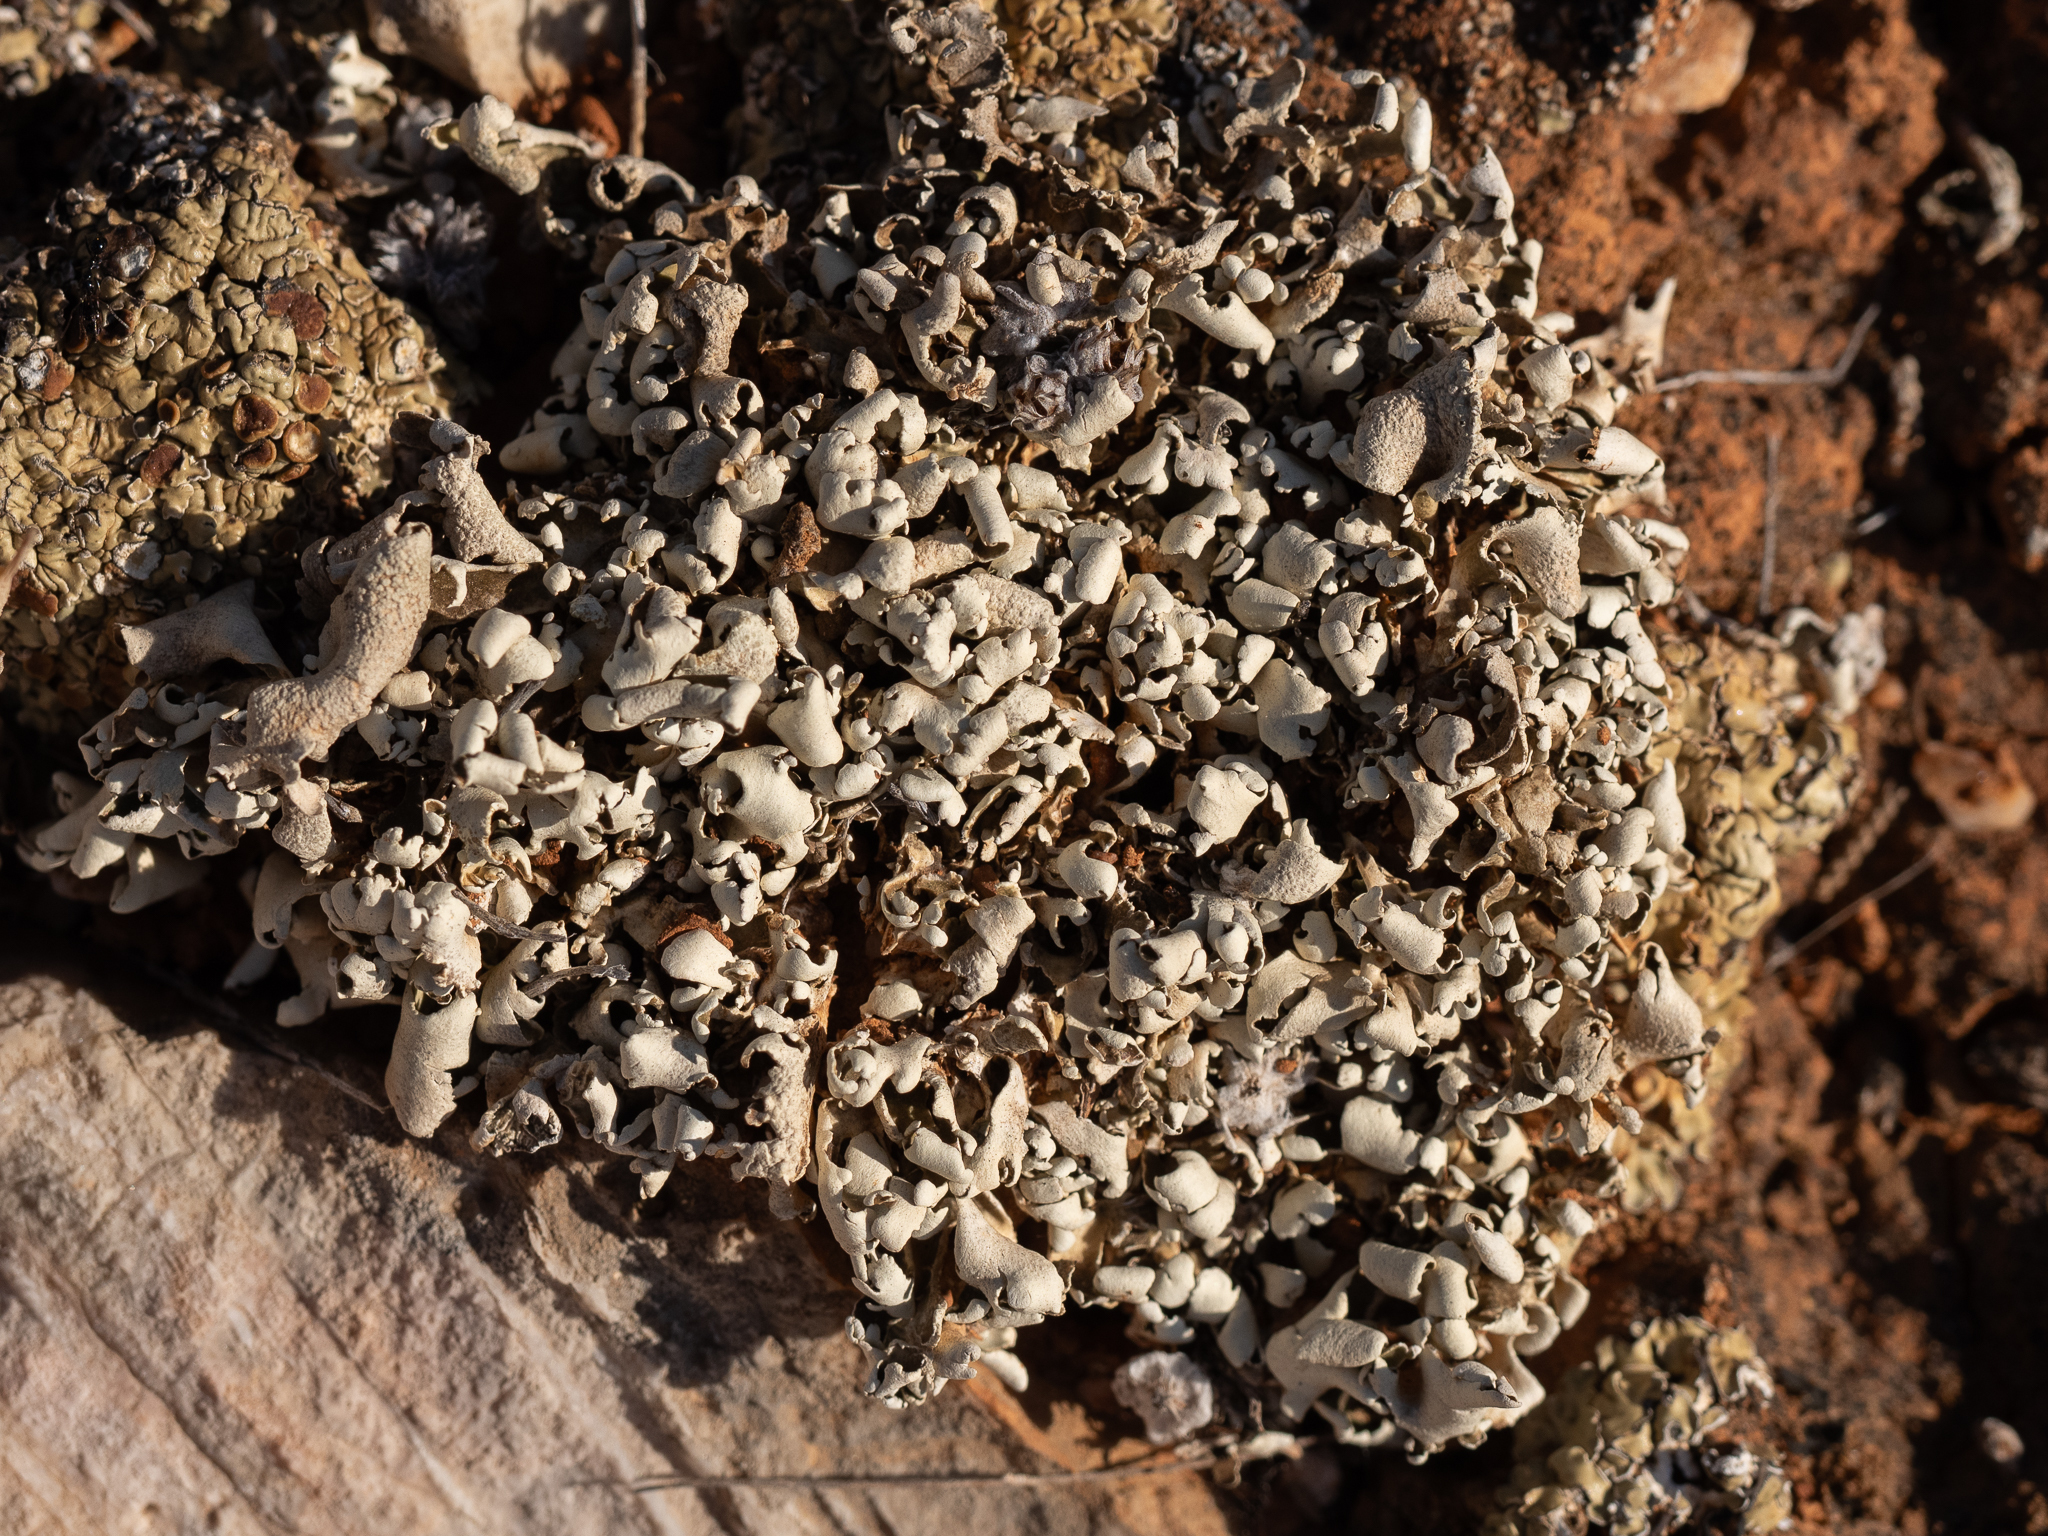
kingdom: Fungi
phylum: Ascomycota
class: Lecanoromycetes
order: Lecanorales
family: Cladoniaceae
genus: Cladonia
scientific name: Cladonia foliacea
